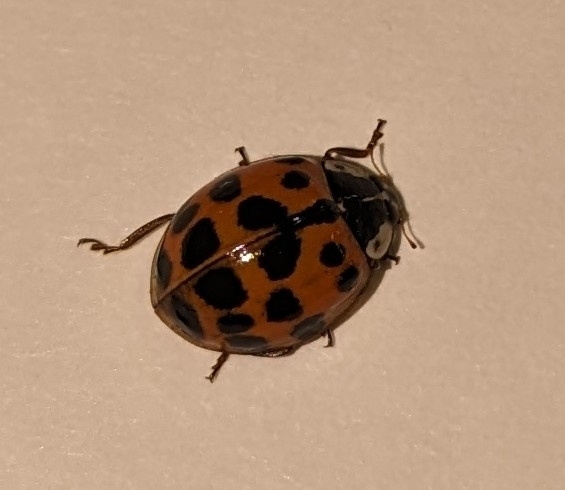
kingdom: Animalia
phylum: Arthropoda
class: Insecta
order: Coleoptera
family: Coccinellidae
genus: Harmonia
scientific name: Harmonia axyridis
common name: Harlequin ladybird
